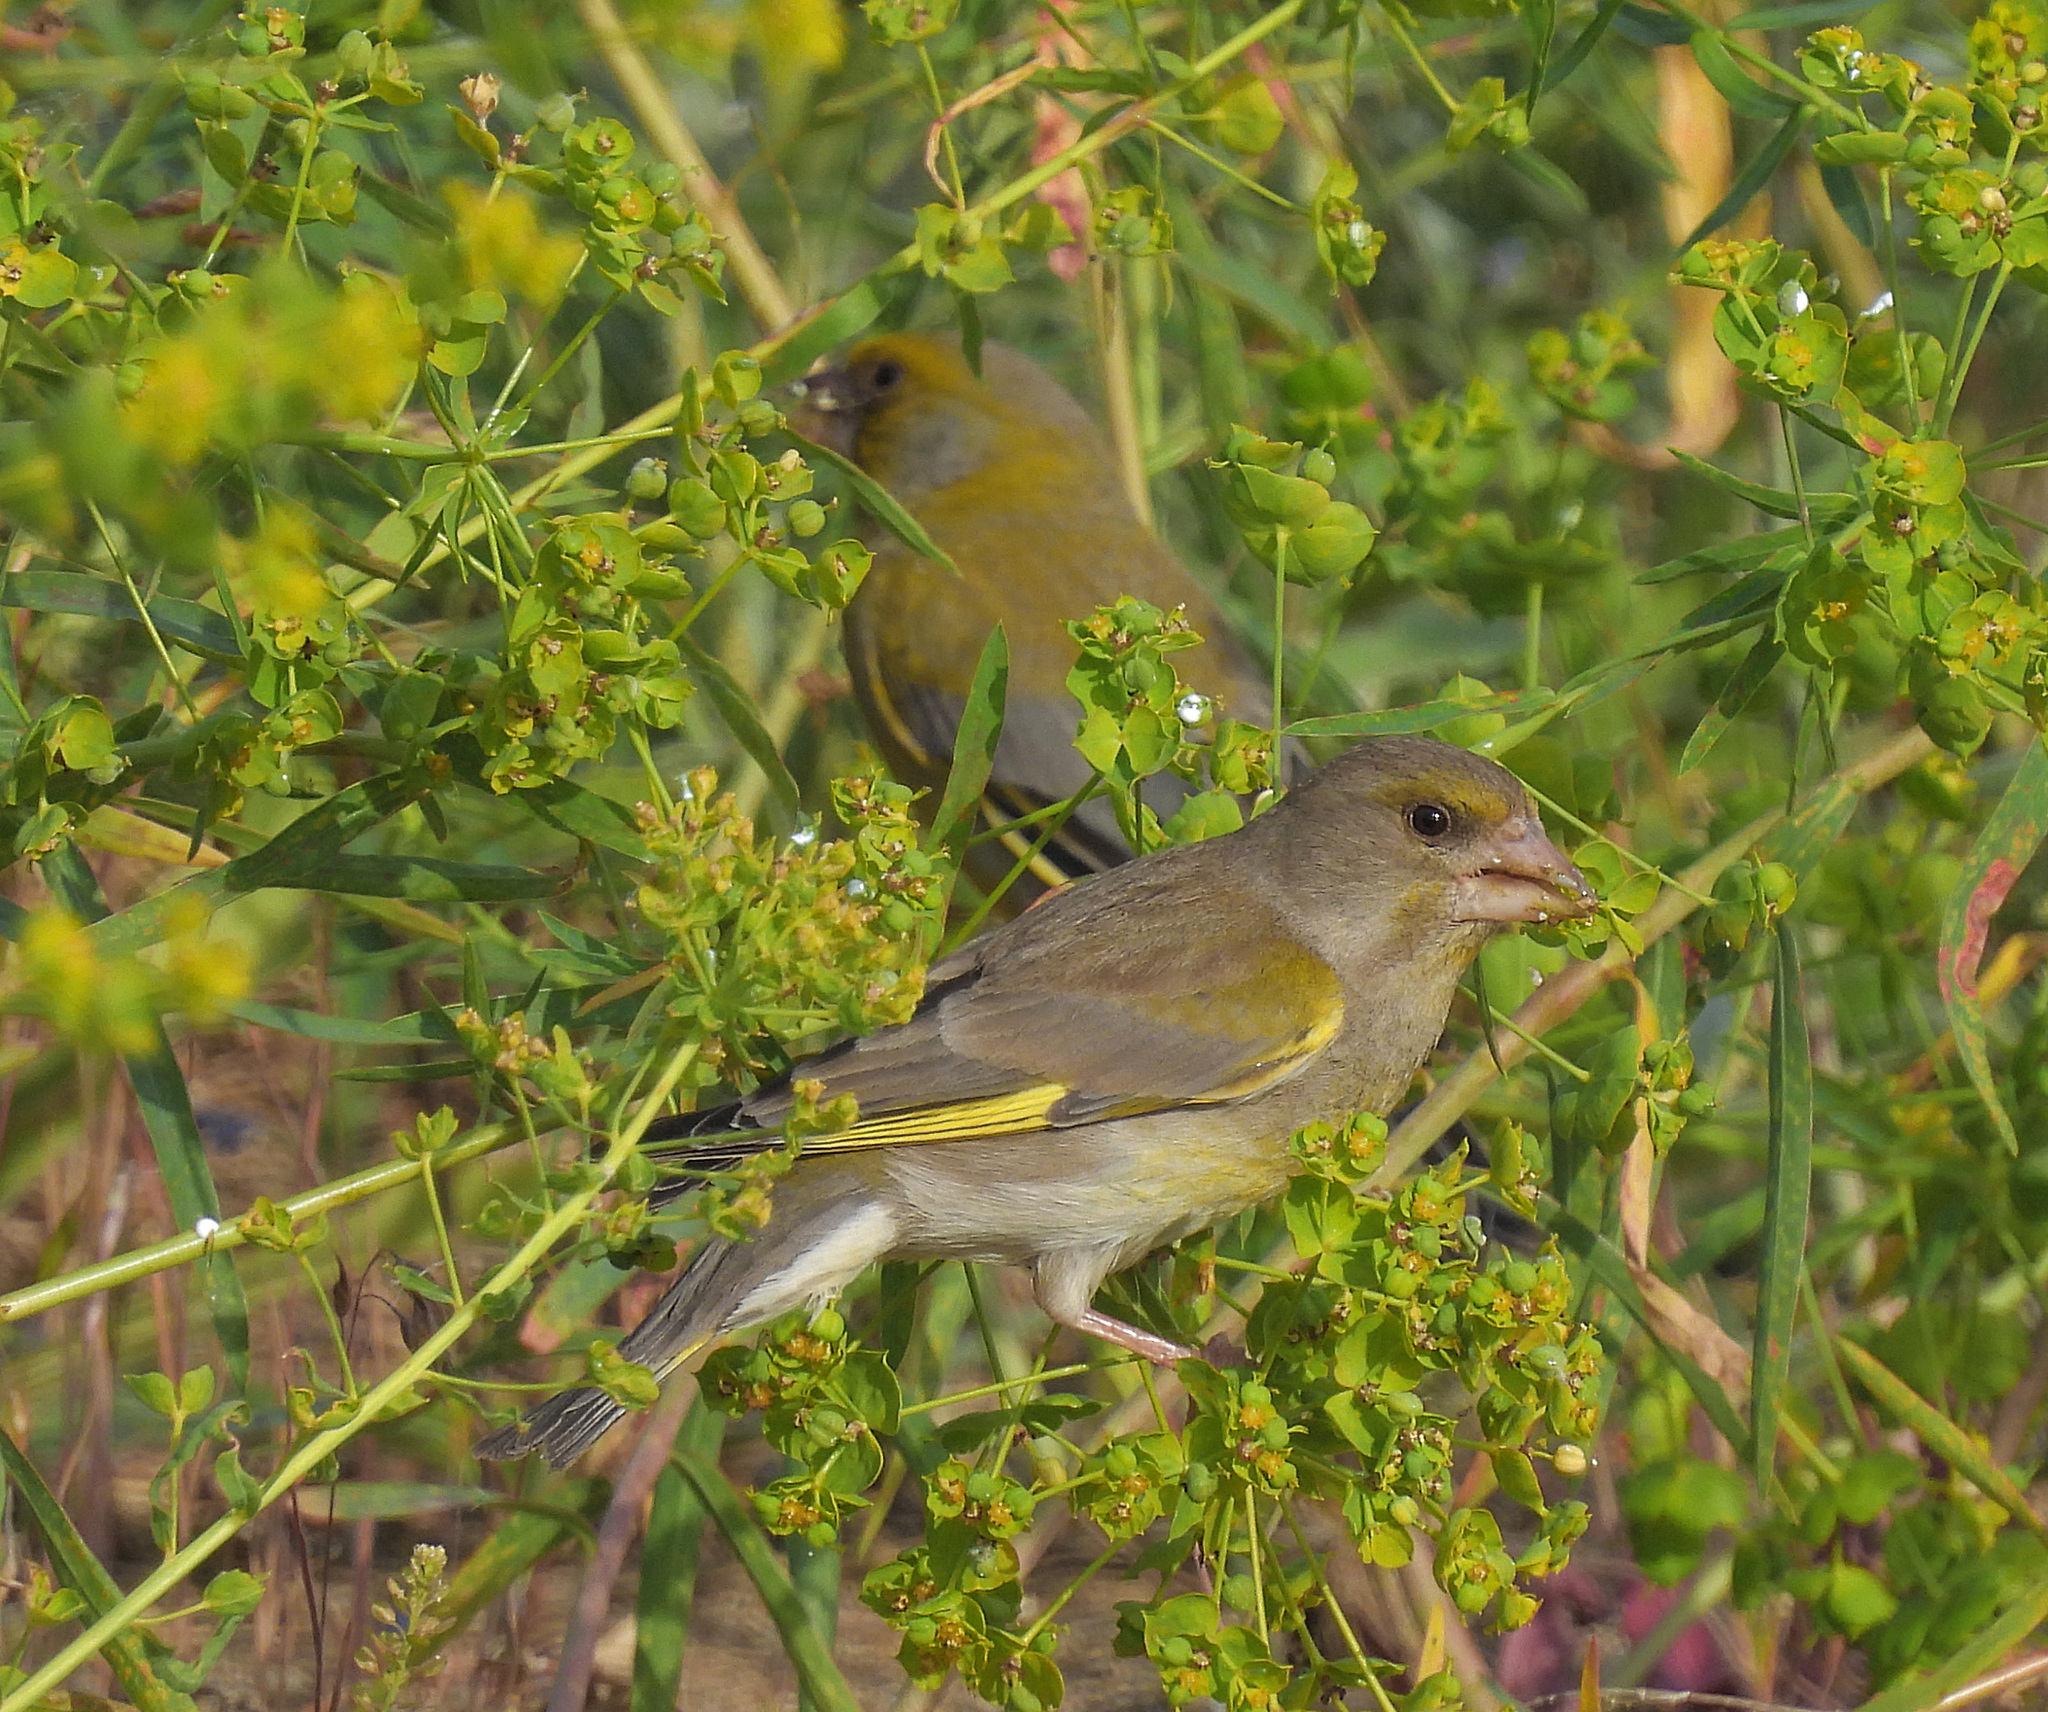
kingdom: Plantae
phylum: Tracheophyta
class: Liliopsida
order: Poales
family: Poaceae
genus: Chloris
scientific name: Chloris chloris
